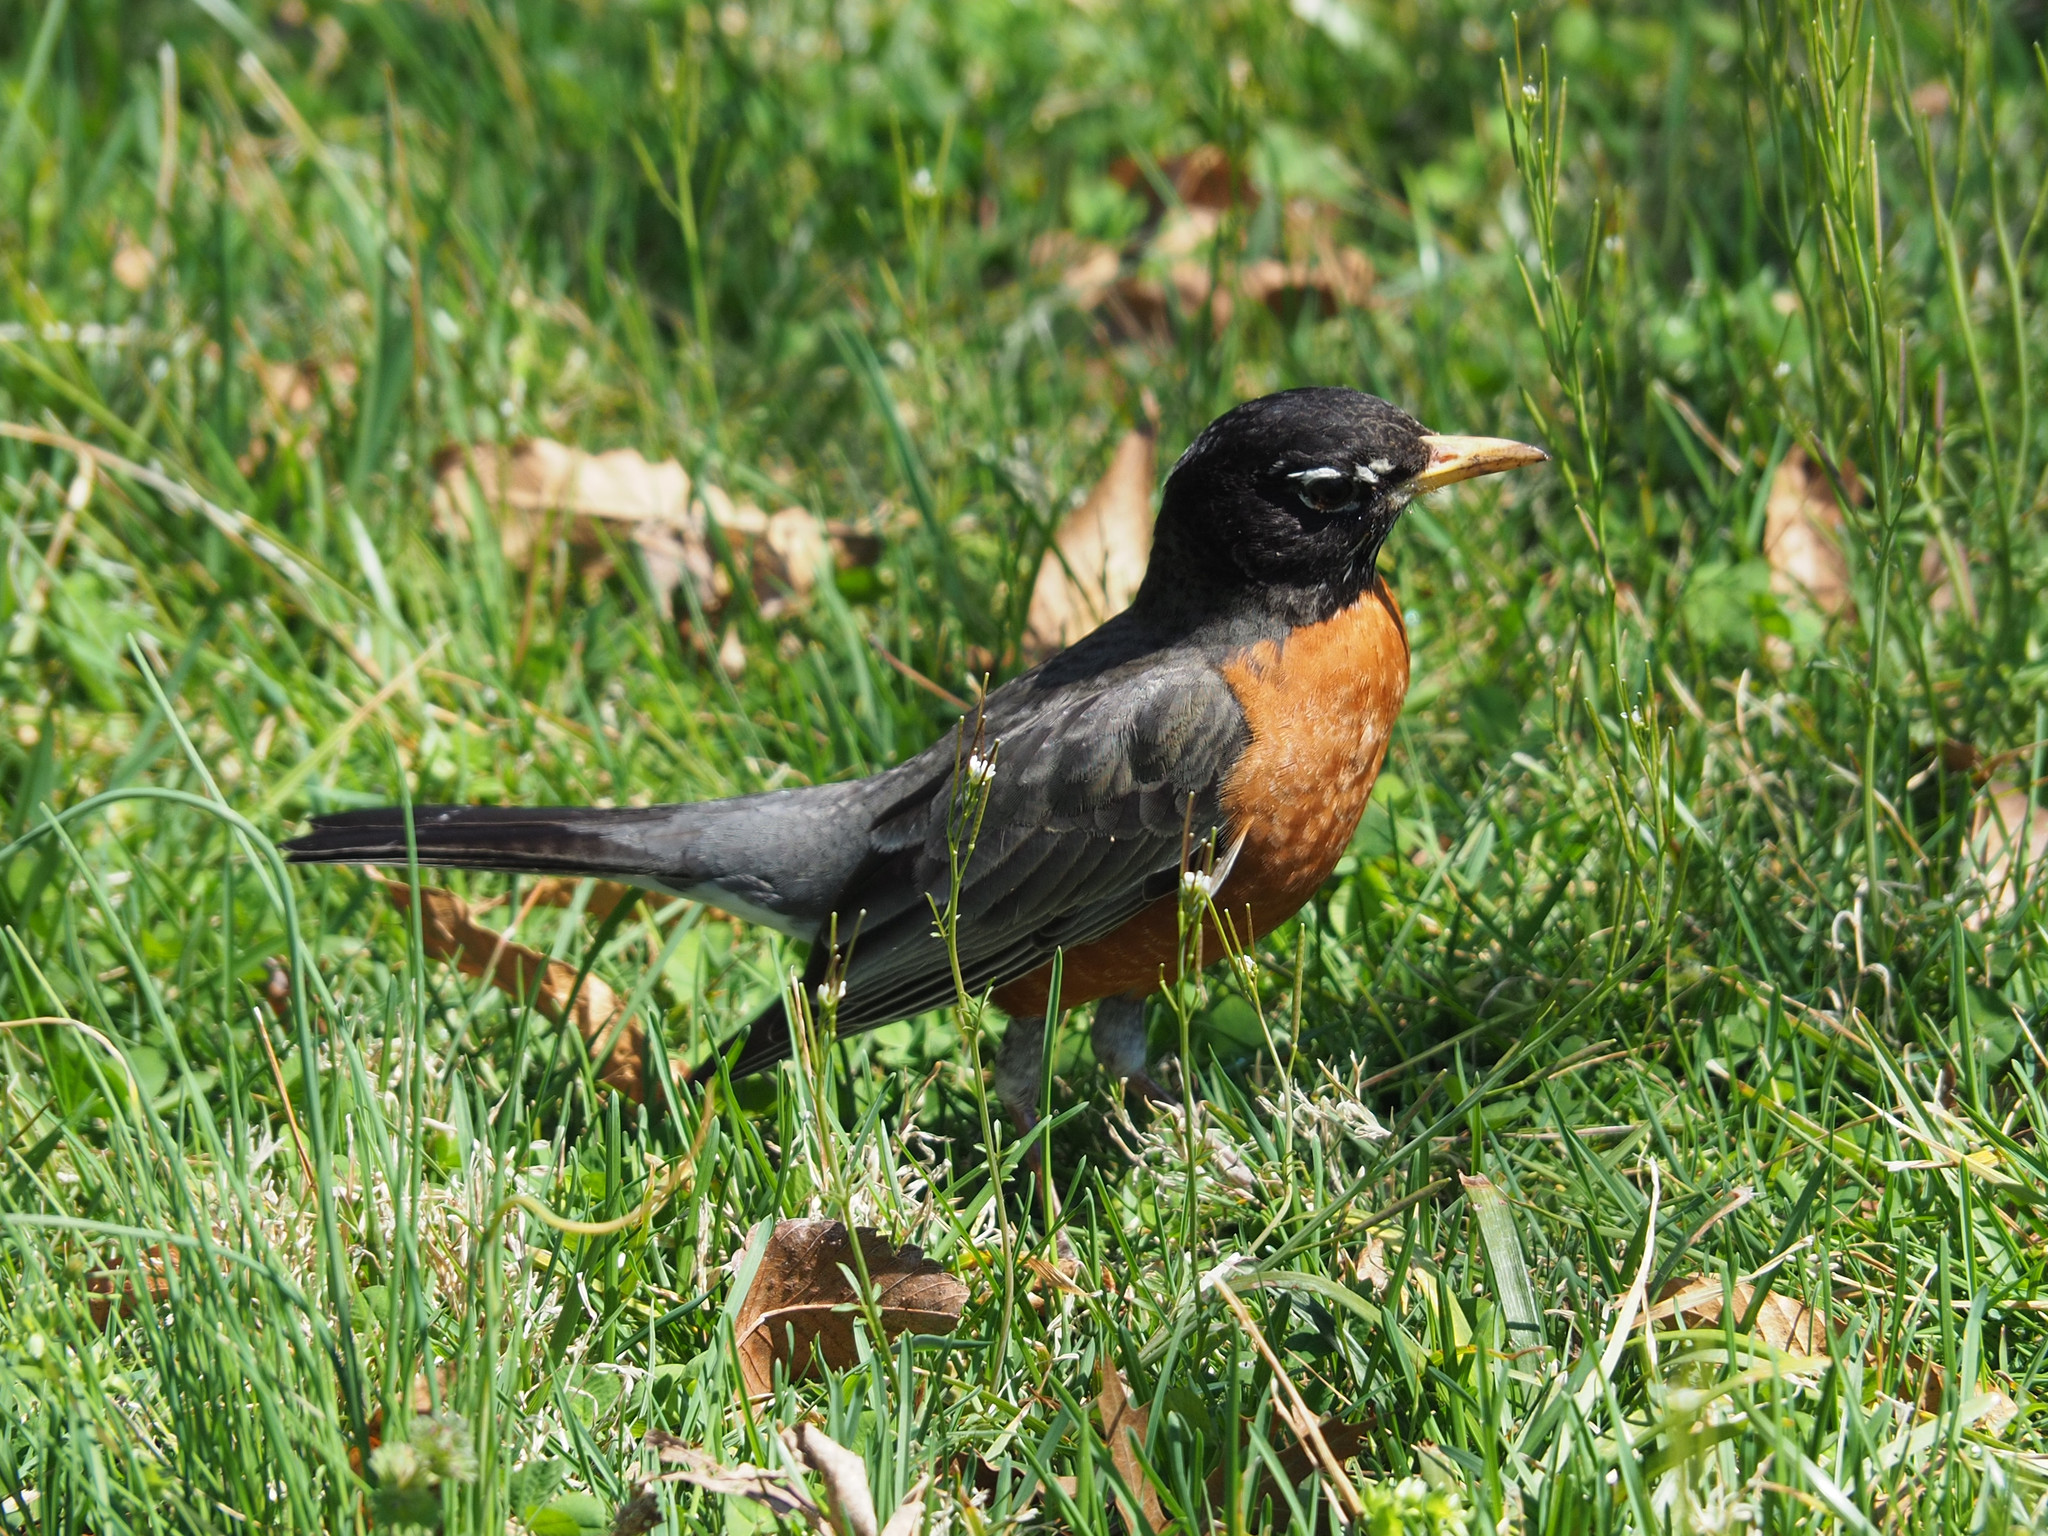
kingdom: Animalia
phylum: Chordata
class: Aves
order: Passeriformes
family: Turdidae
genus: Turdus
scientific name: Turdus migratorius
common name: American robin
